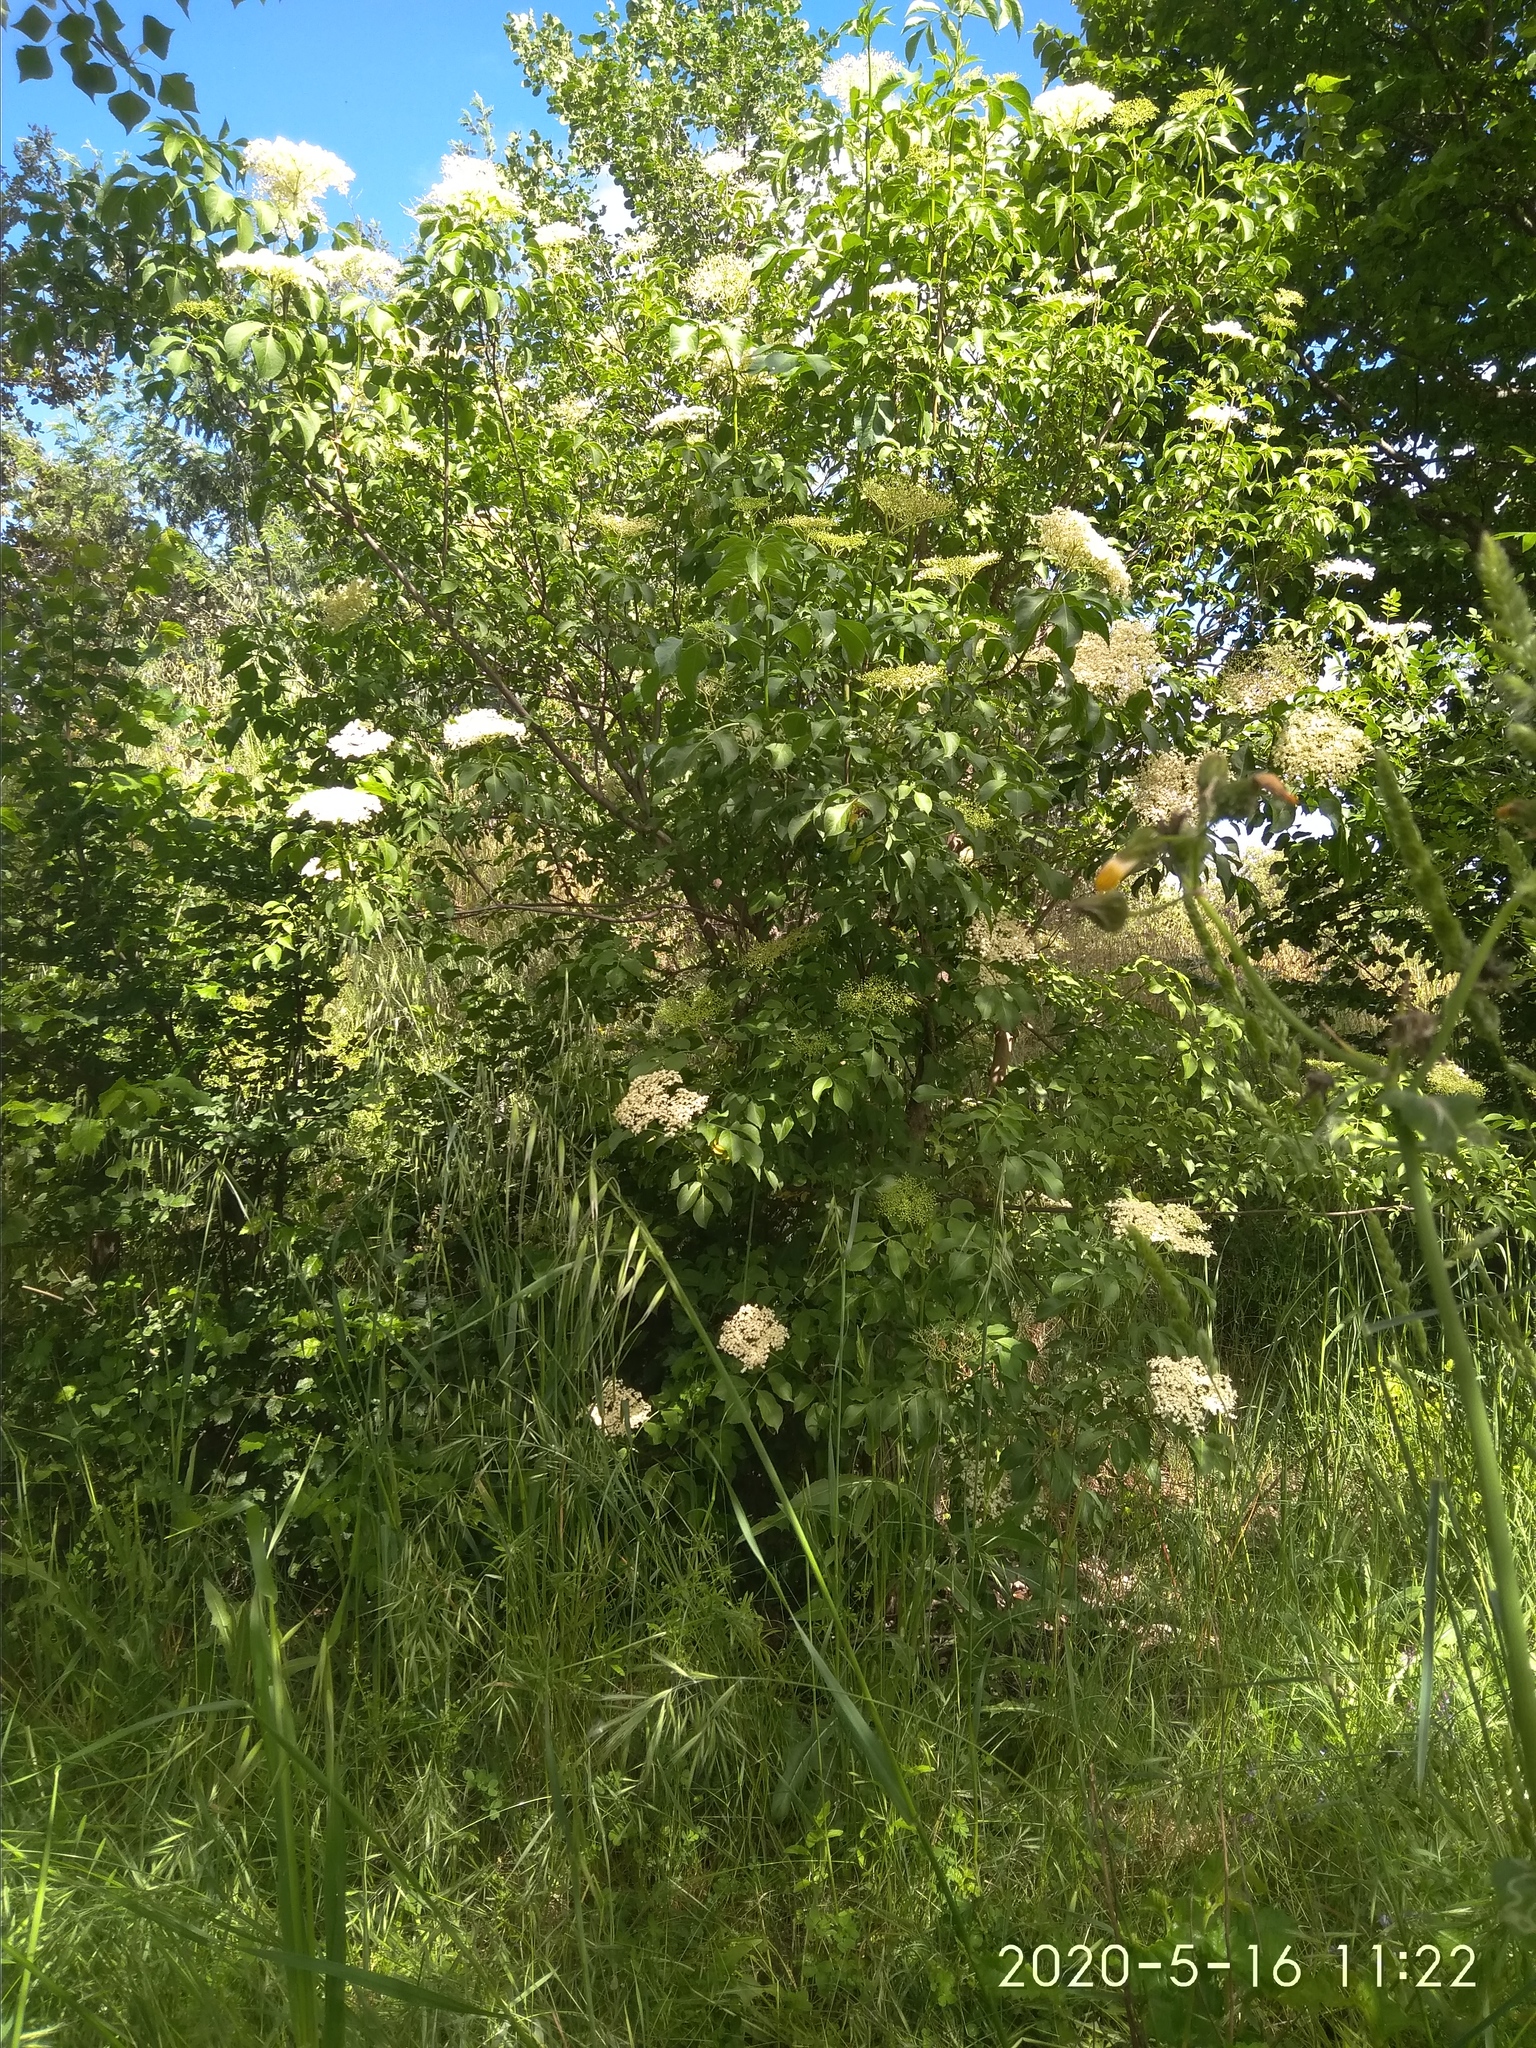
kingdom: Plantae
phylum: Tracheophyta
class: Magnoliopsida
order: Dipsacales
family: Viburnaceae
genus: Sambucus
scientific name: Sambucus nigra
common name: Elder
